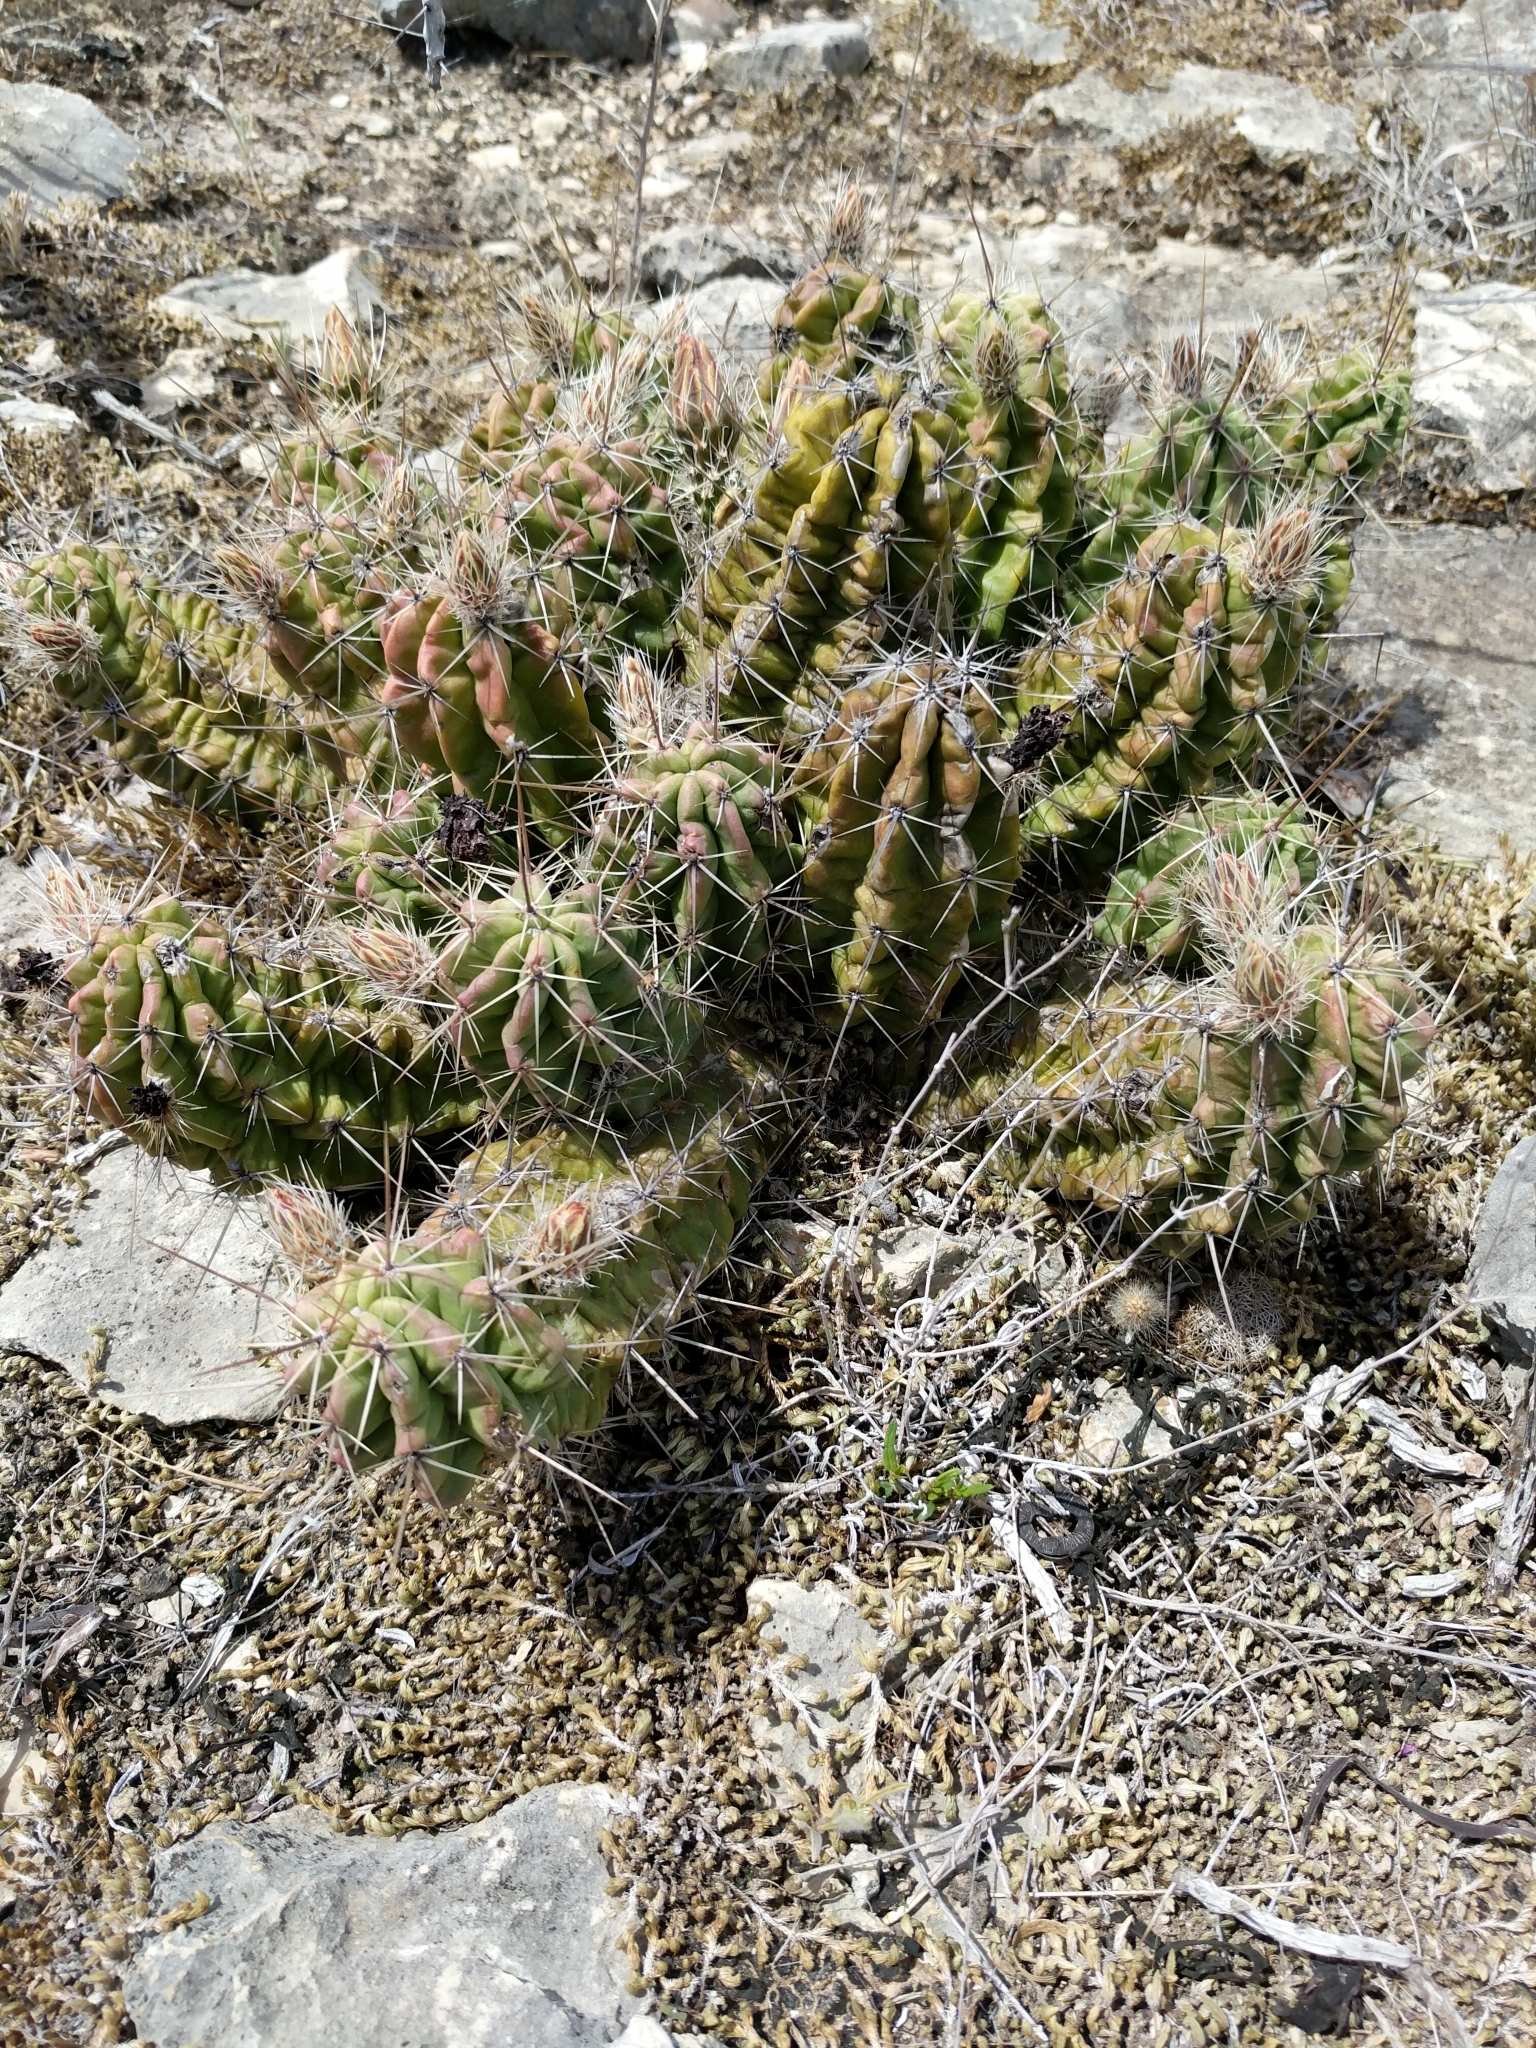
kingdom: Plantae
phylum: Tracheophyta
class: Magnoliopsida
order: Caryophyllales
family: Cactaceae
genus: Echinocereus
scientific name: Echinocereus enneacanthus
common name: Pitaya
